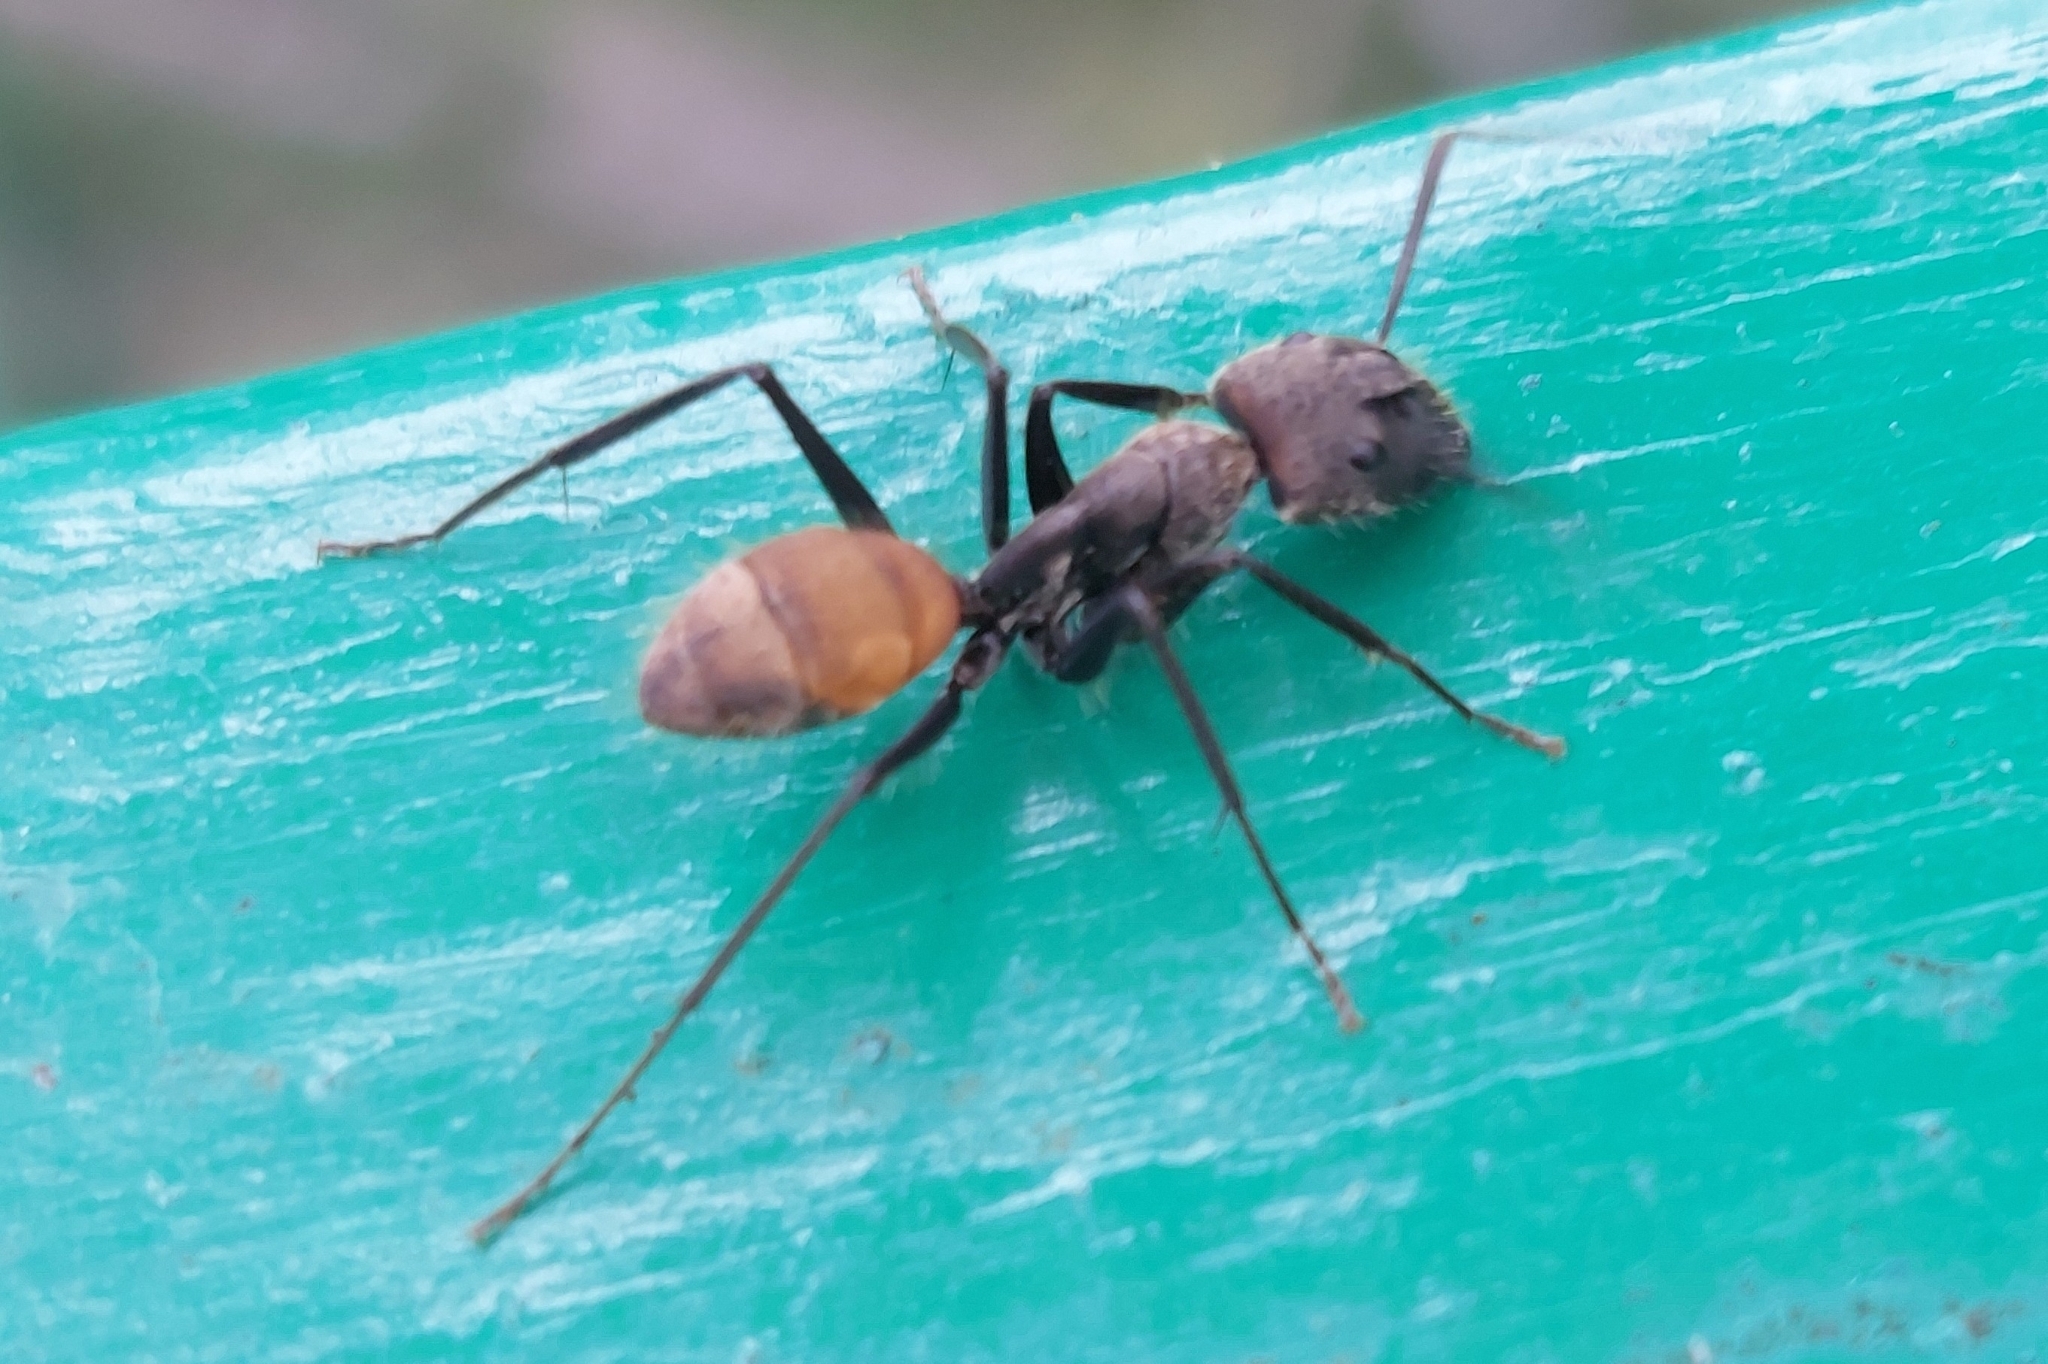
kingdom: Animalia
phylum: Arthropoda
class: Insecta
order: Hymenoptera
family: Formicidae
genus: Camponotus
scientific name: Camponotus rapax
